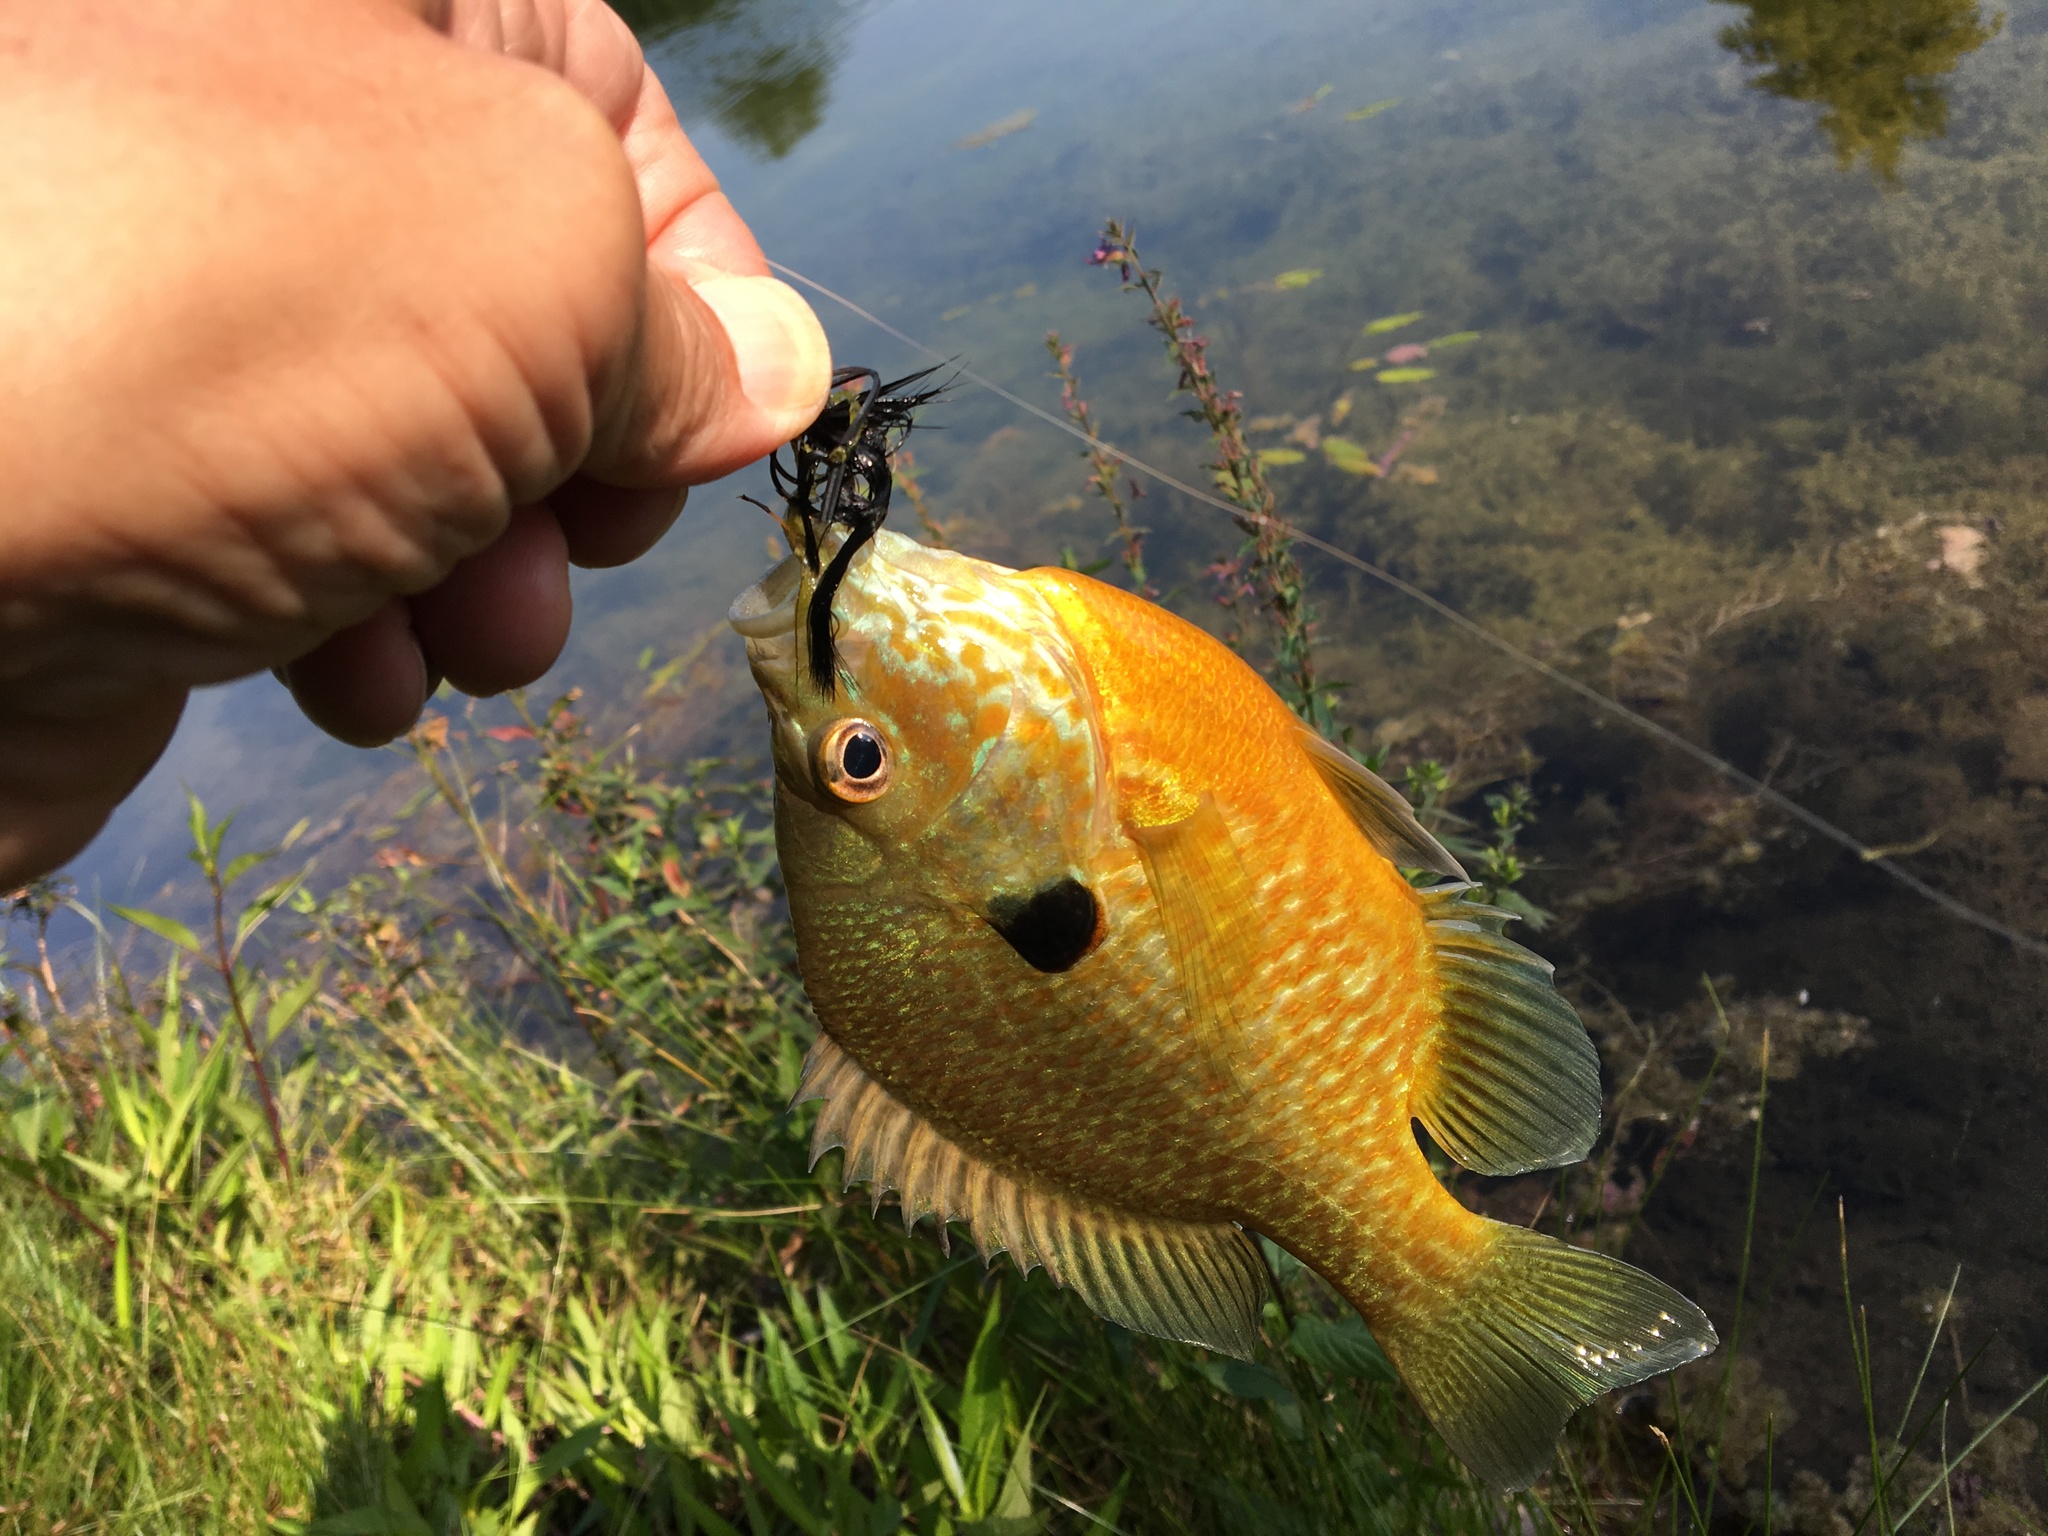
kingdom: Animalia
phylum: Chordata
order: Perciformes
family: Centrarchidae
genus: Lepomis
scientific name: Lepomis
